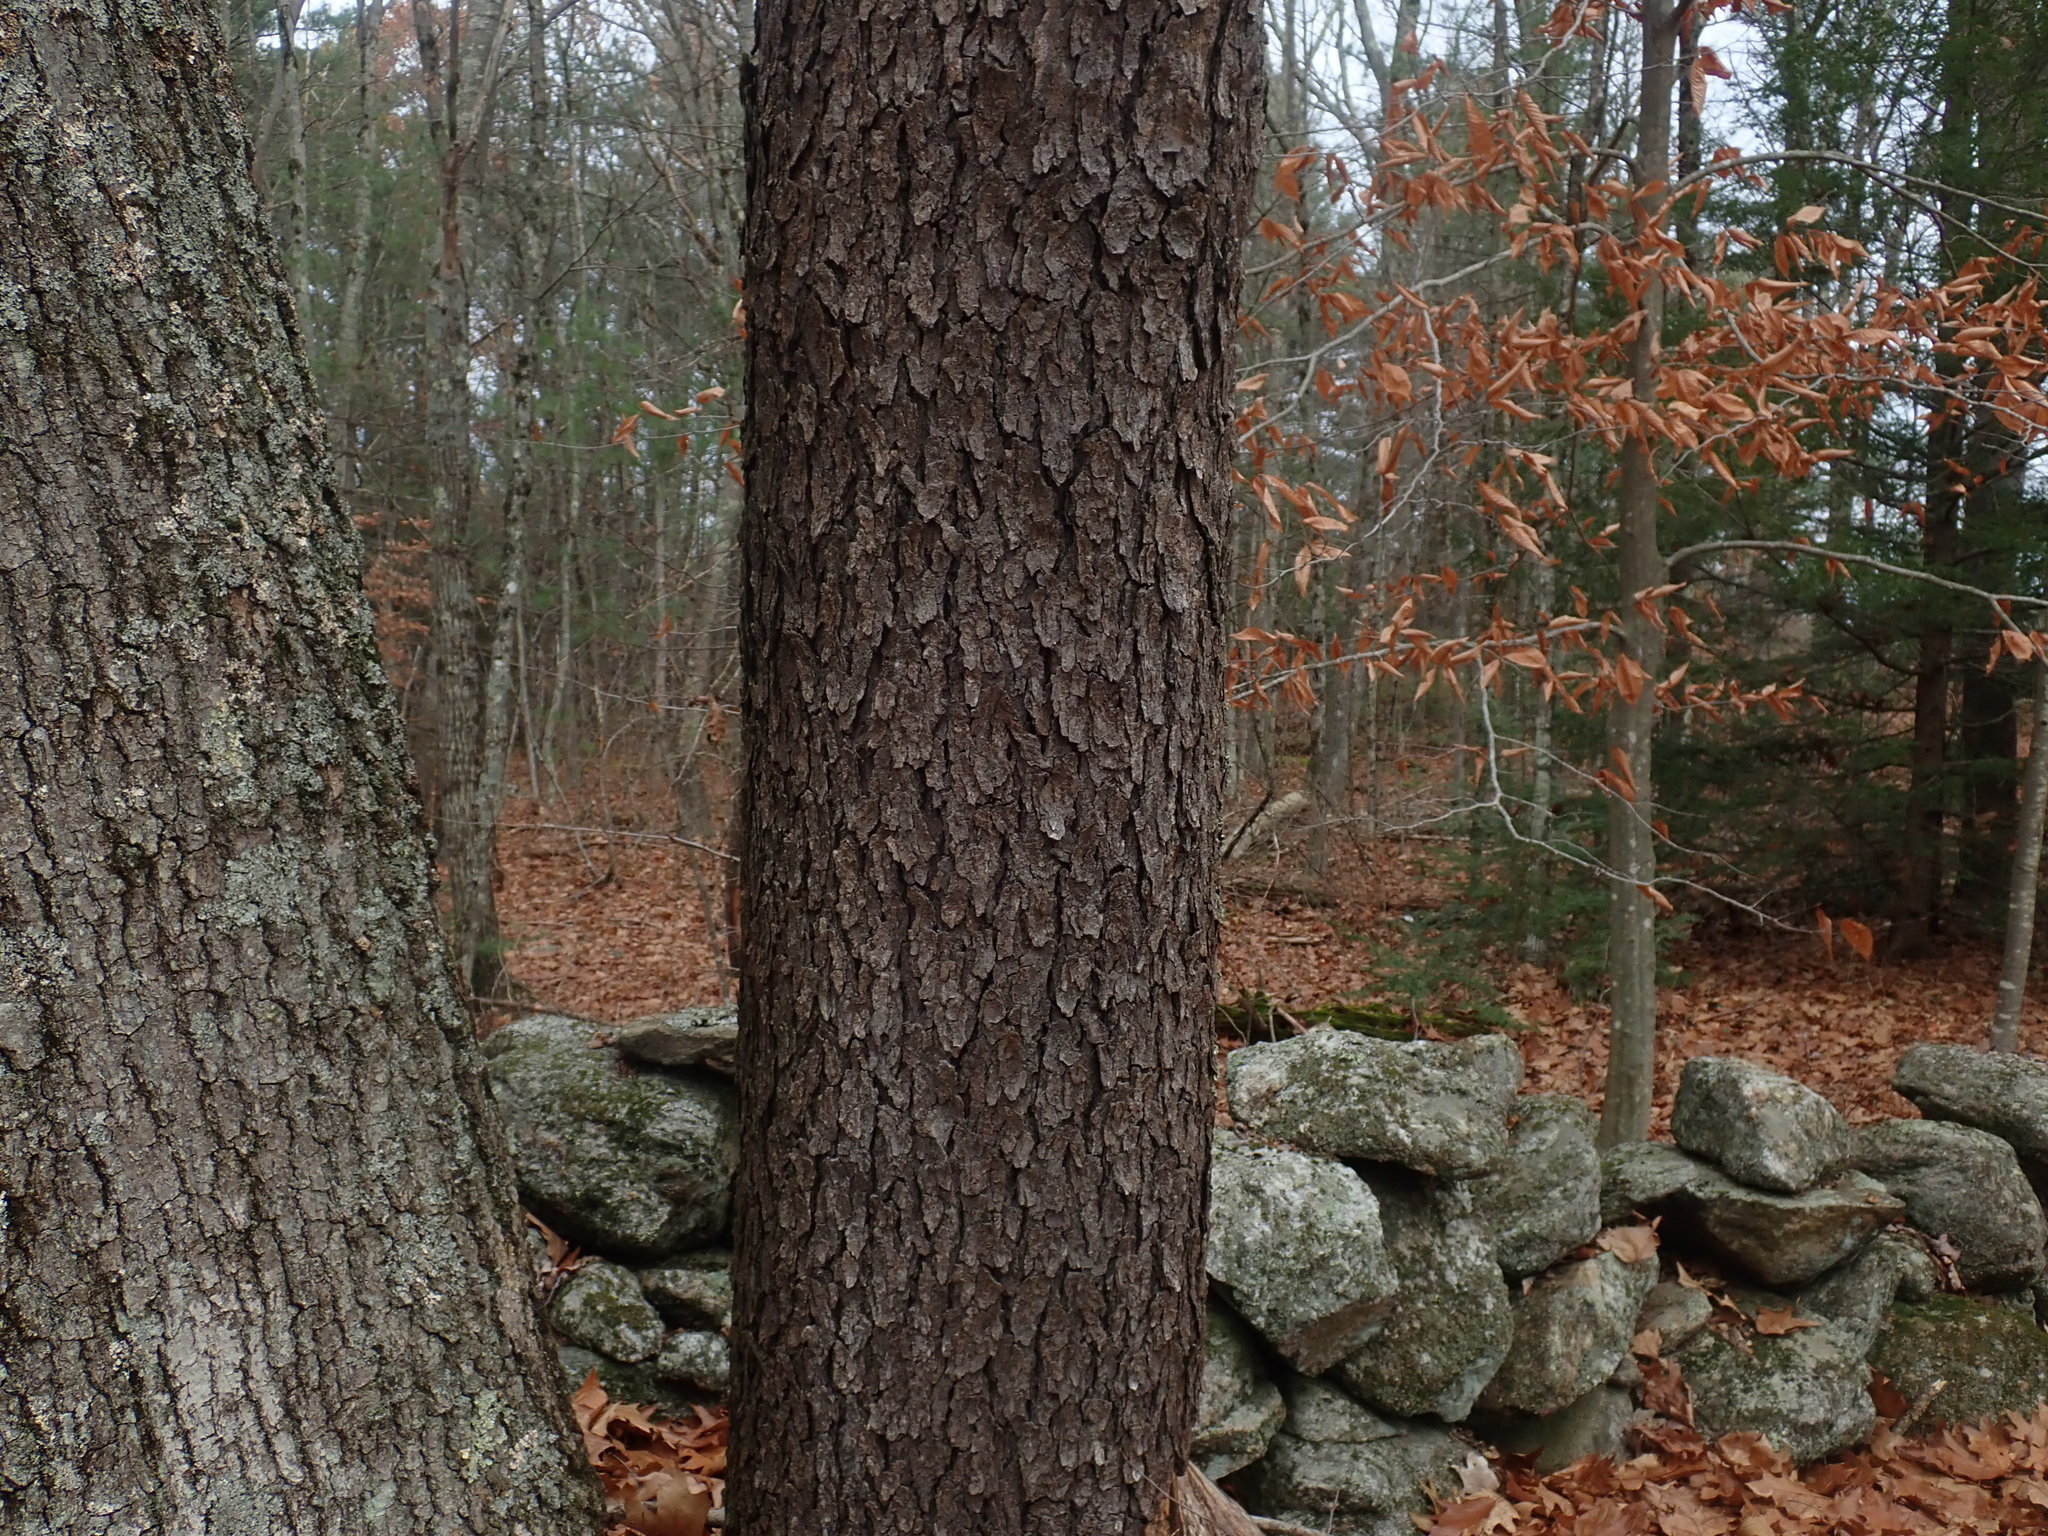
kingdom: Plantae
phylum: Tracheophyta
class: Magnoliopsida
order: Rosales
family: Rosaceae
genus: Prunus
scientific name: Prunus serotina
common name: Black cherry
